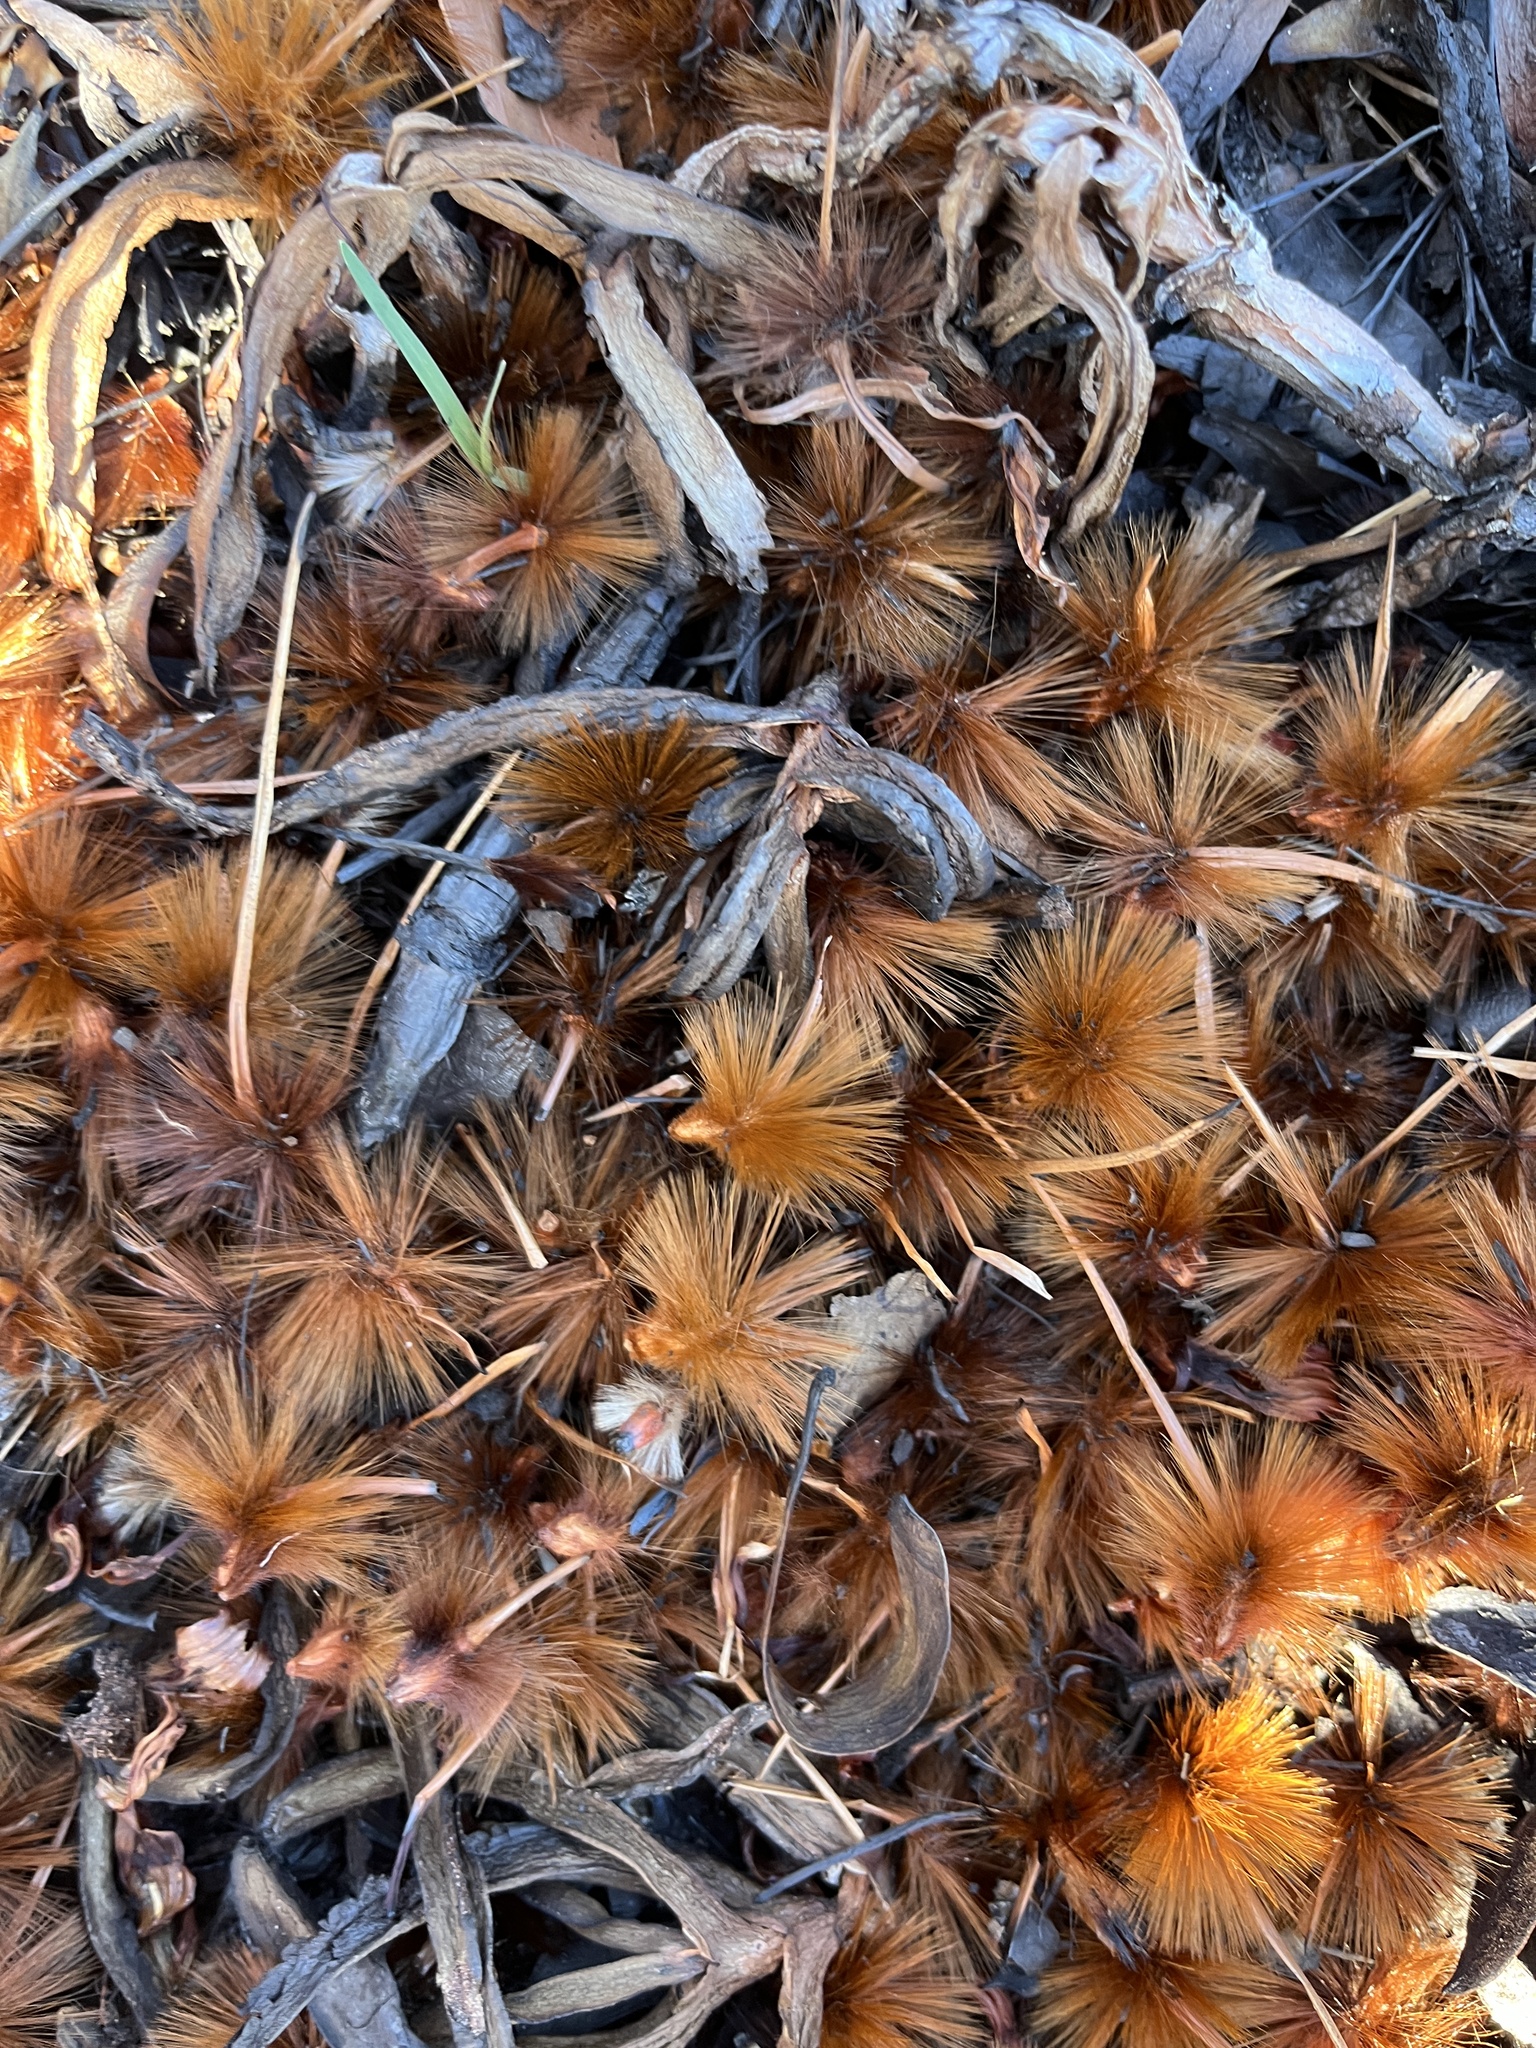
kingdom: Plantae
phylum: Tracheophyta
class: Magnoliopsida
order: Proteales
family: Proteaceae
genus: Protea
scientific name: Protea repens
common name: Sugarbush
